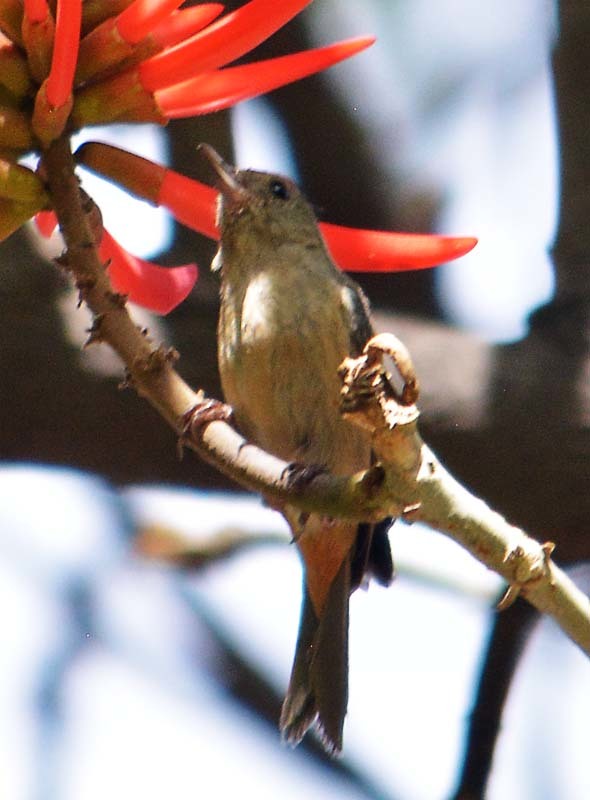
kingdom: Animalia
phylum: Chordata
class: Aves
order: Passeriformes
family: Thraupidae
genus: Diglossa
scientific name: Diglossa baritula
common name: Cinnamon-bellied flowerpiercer
